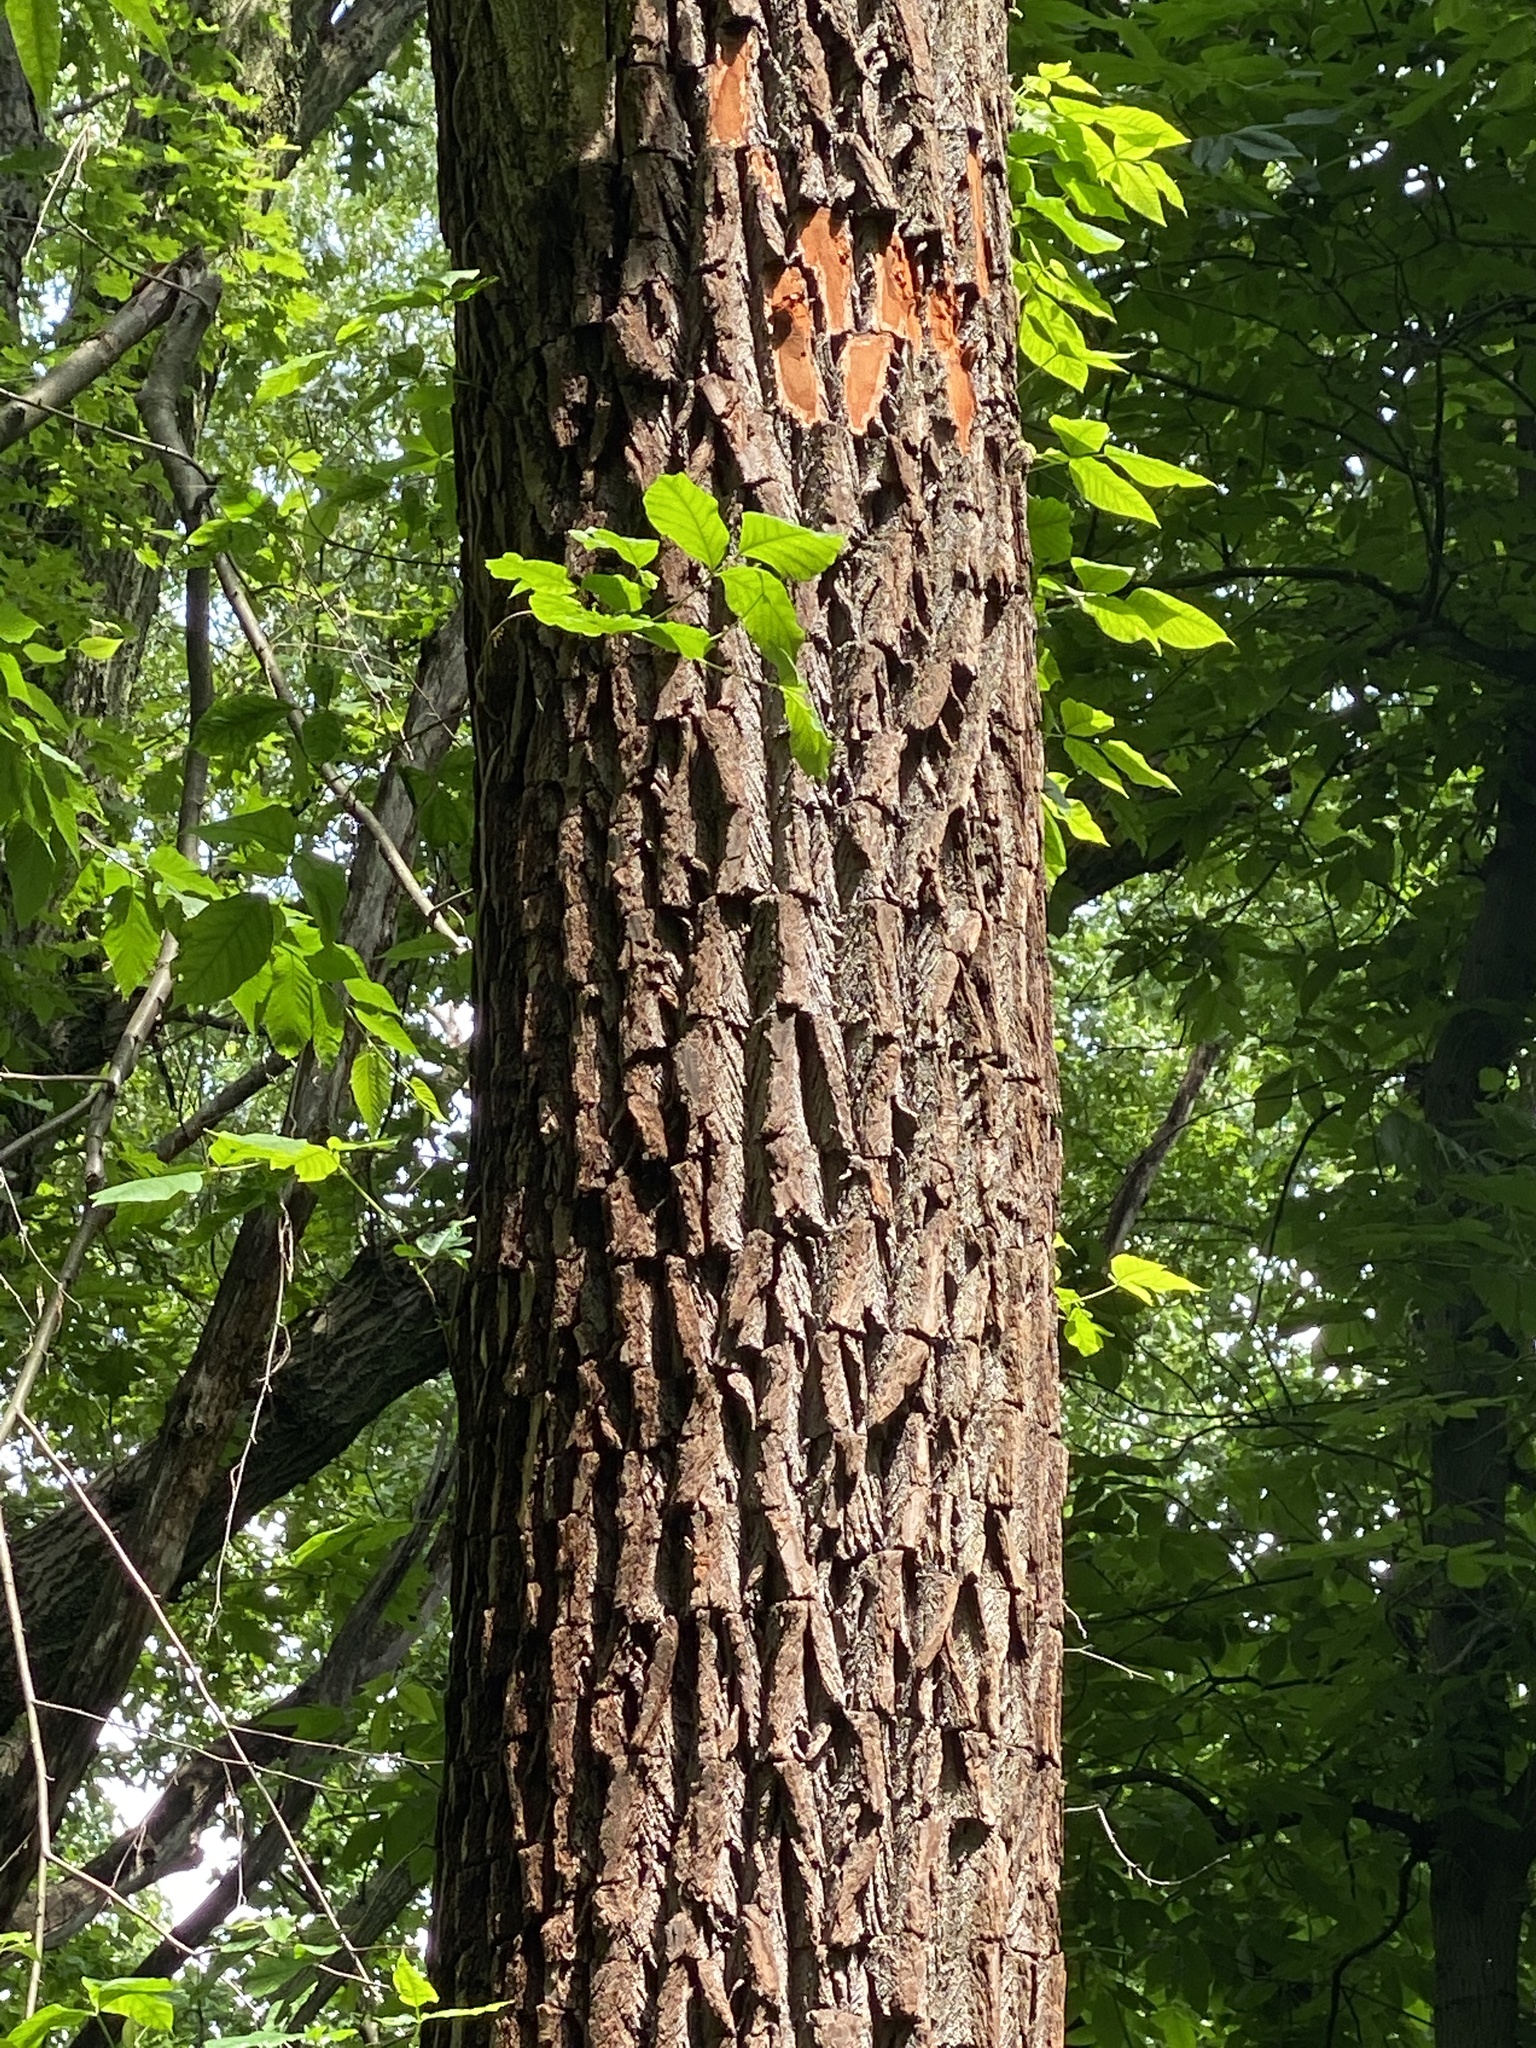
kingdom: Plantae
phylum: Tracheophyta
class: Magnoliopsida
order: Laurales
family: Lauraceae
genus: Sassafras
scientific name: Sassafras albidum
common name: Sassafras
